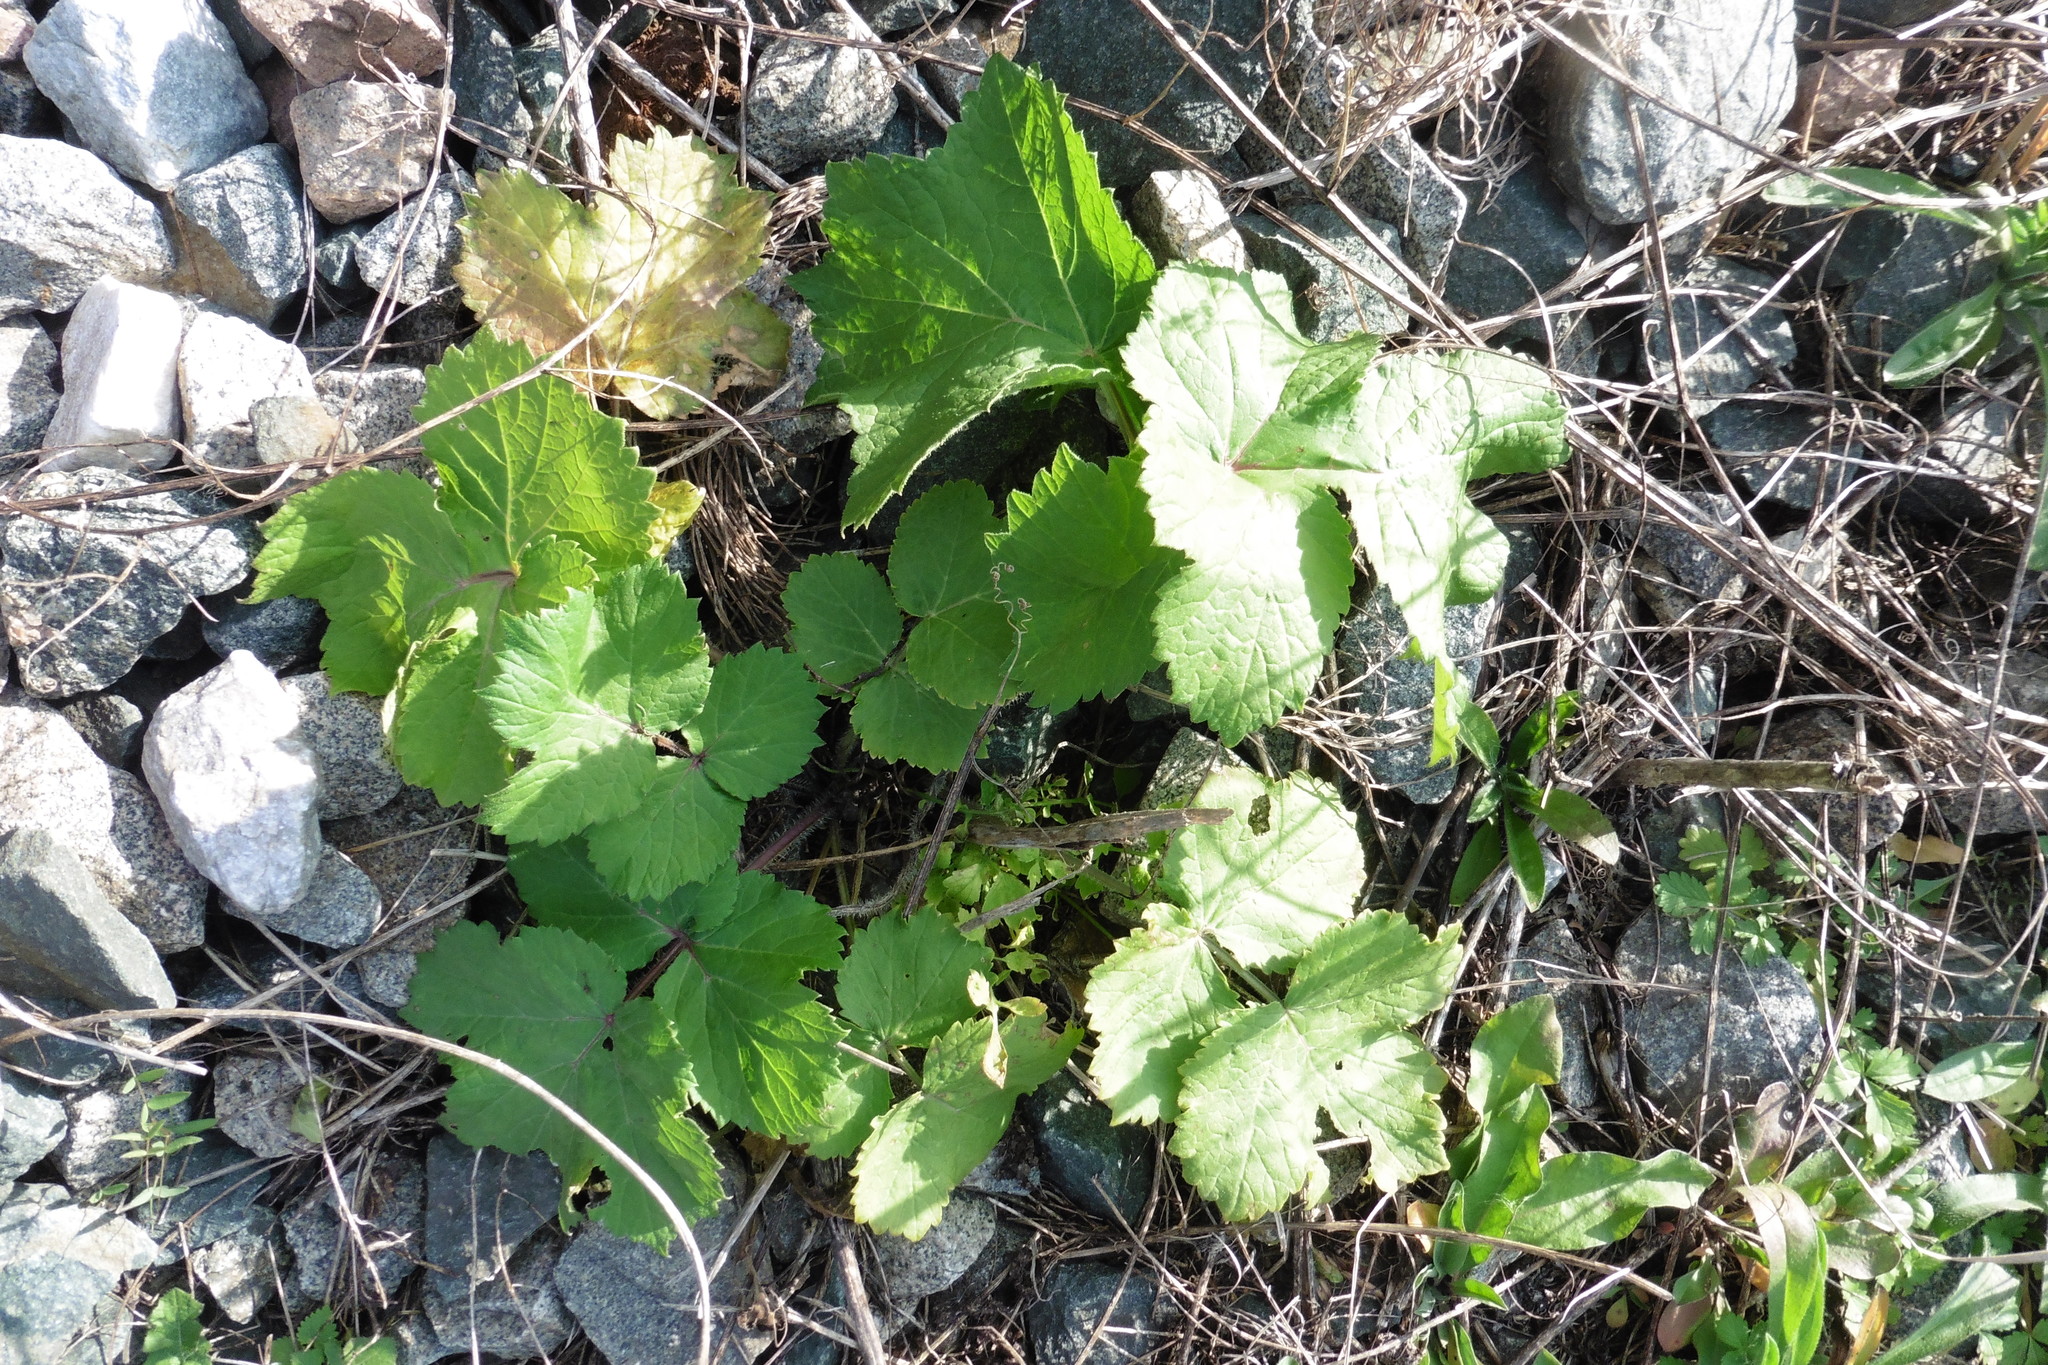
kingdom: Plantae
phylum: Tracheophyta
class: Magnoliopsida
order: Apiales
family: Apiaceae
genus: Pastinaca
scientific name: Pastinaca sativa
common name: Wild parsnip
